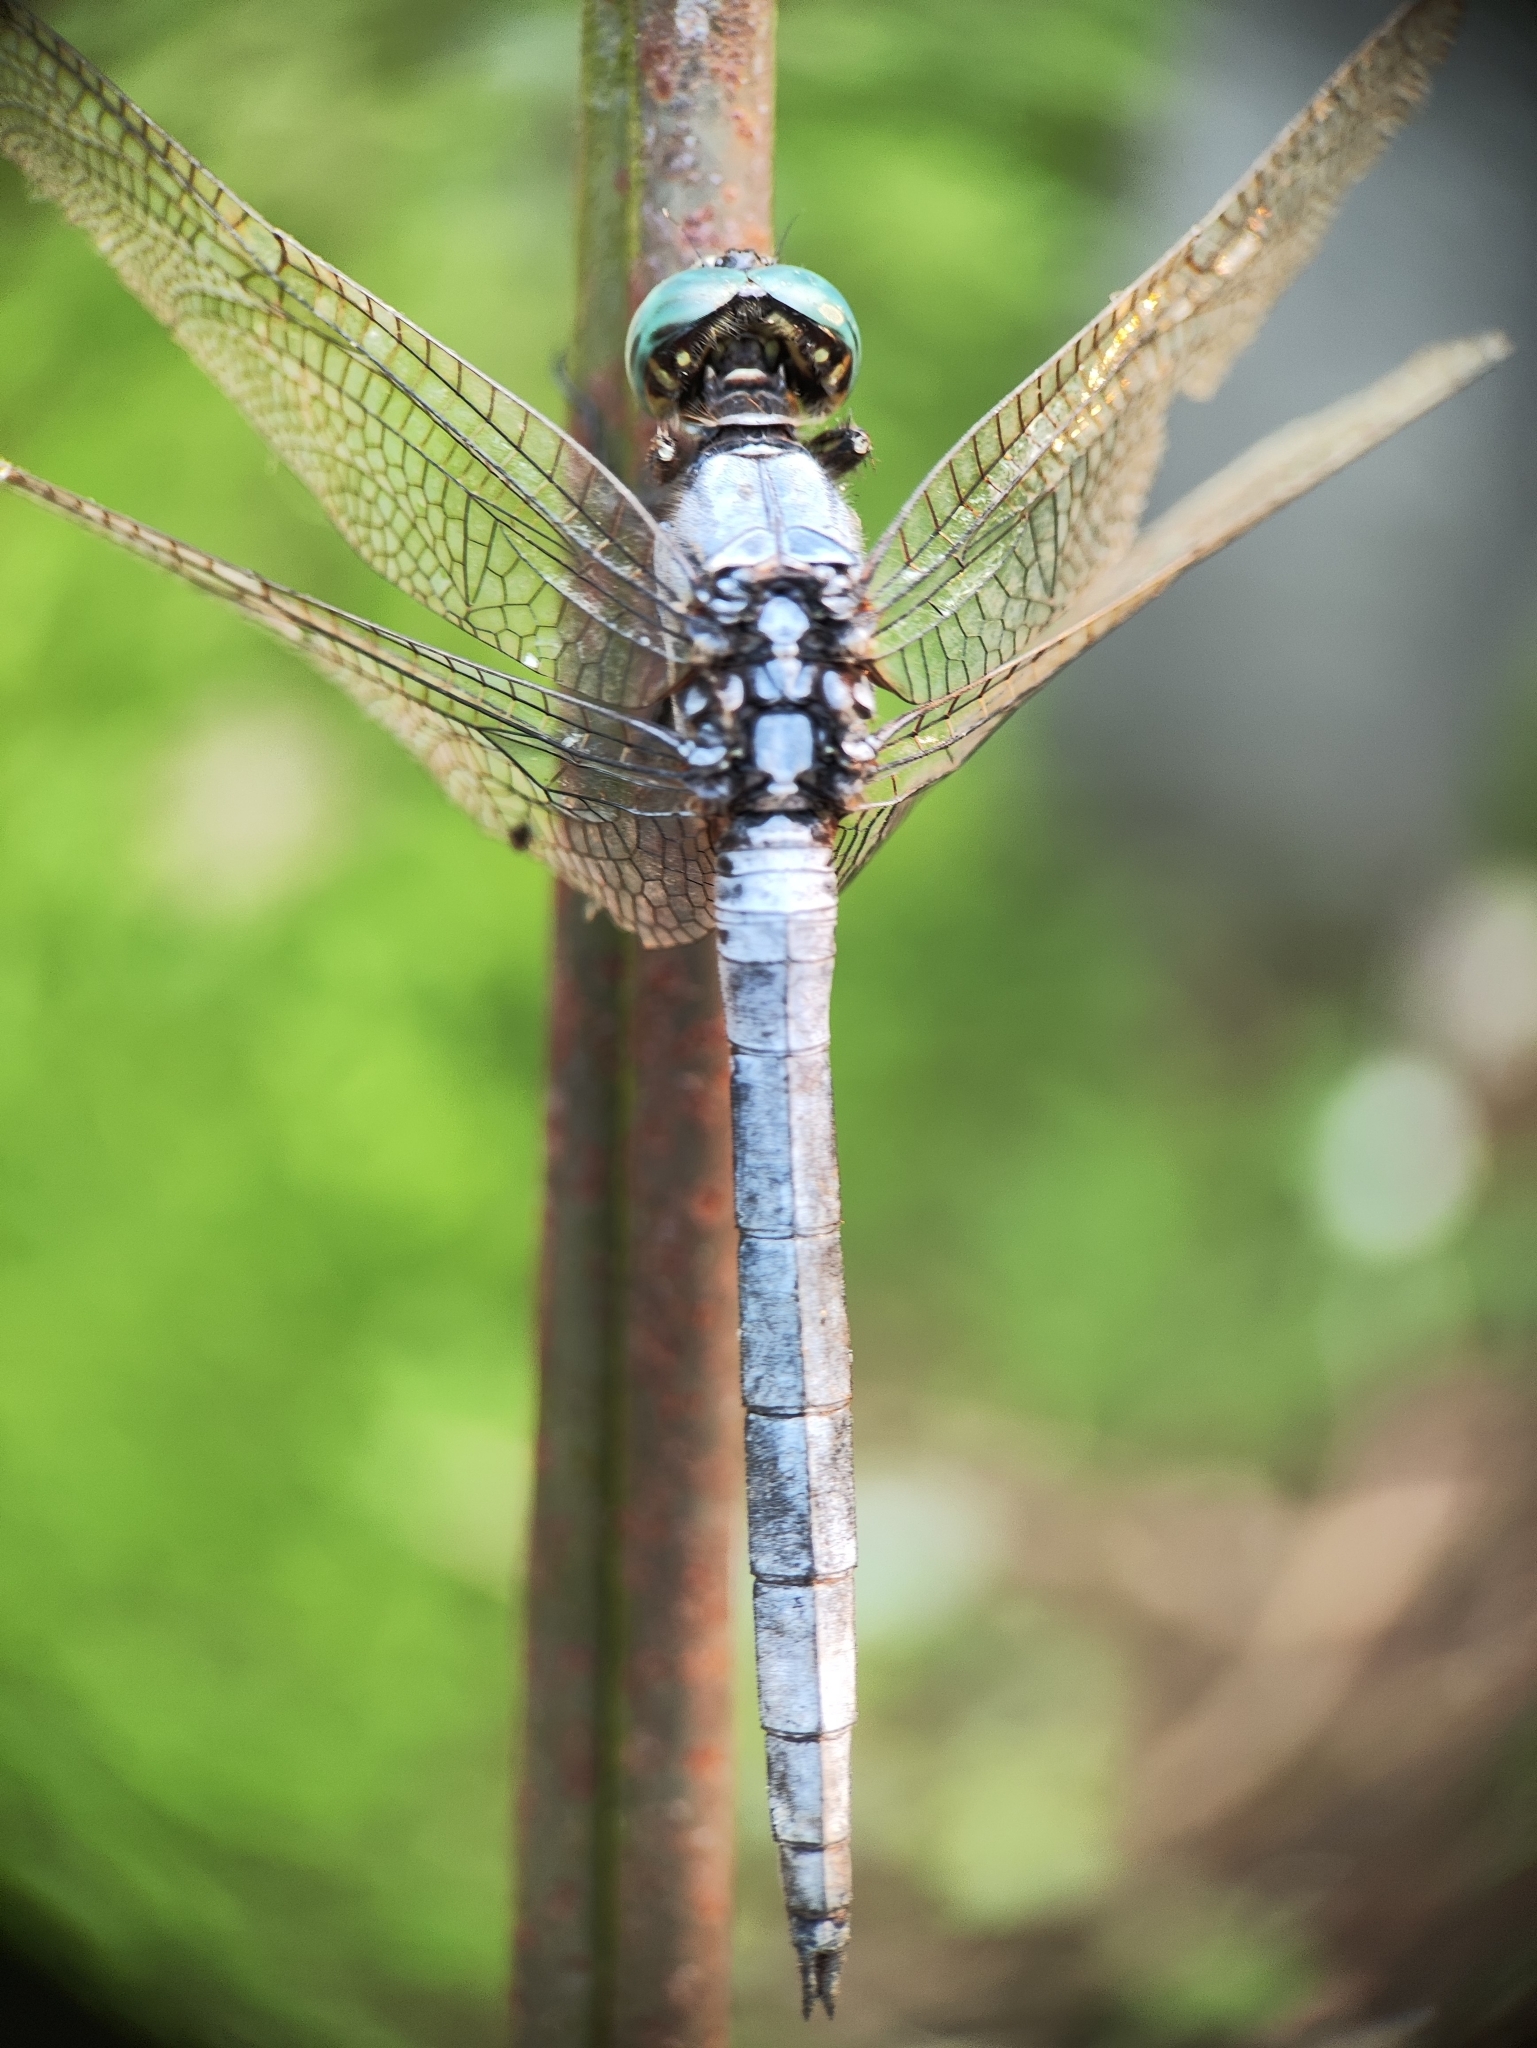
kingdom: Animalia
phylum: Arthropoda
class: Insecta
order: Odonata
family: Libellulidae
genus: Orthetrum
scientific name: Orthetrum luzonicum
